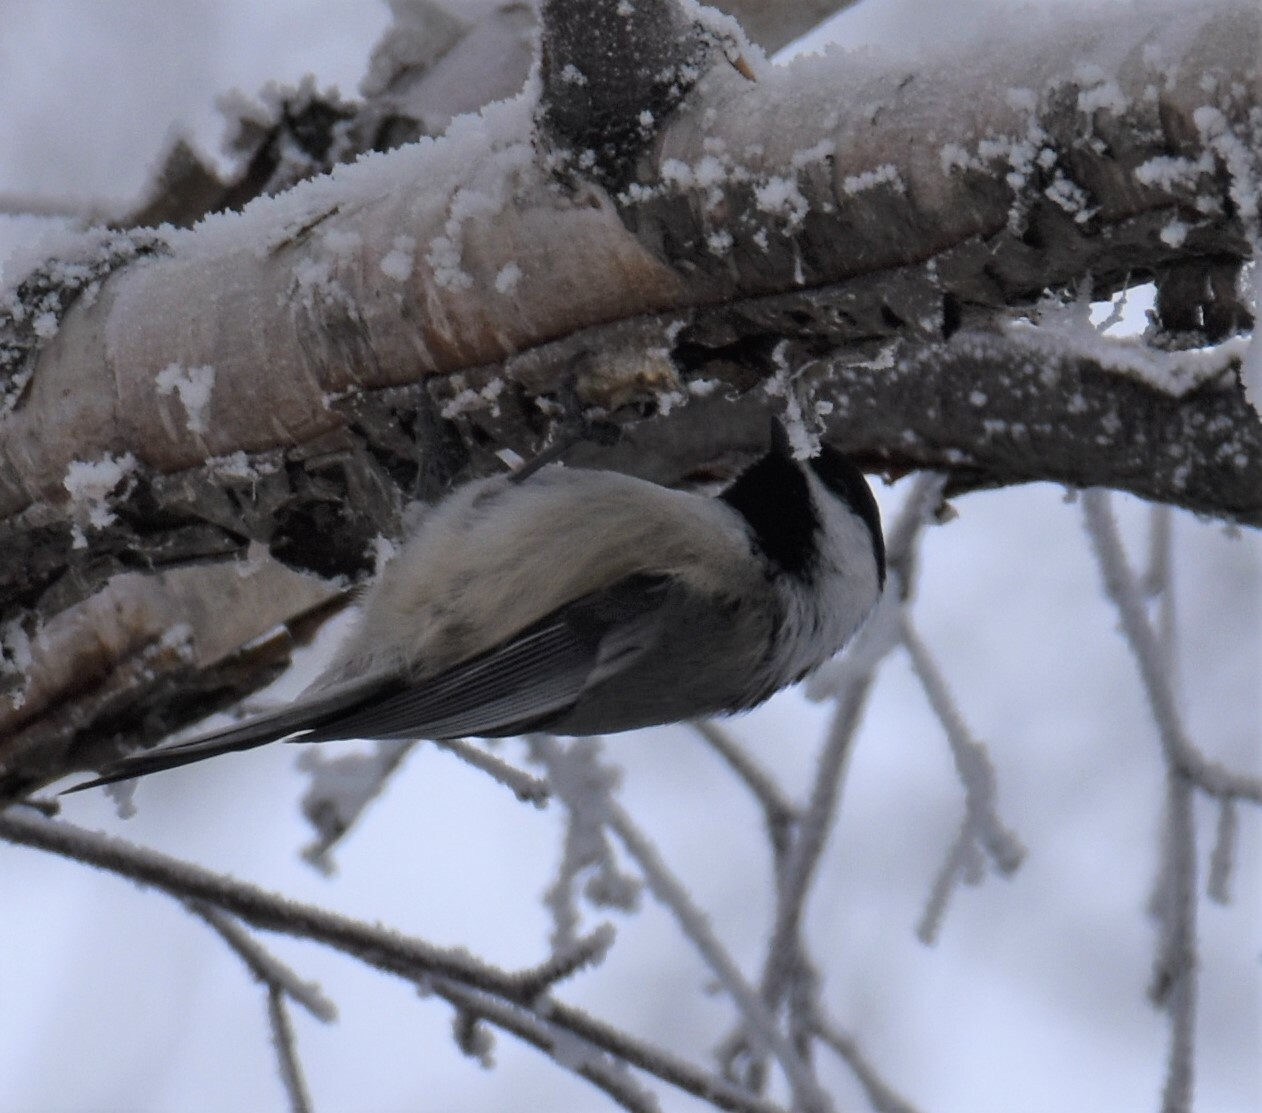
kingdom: Animalia
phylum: Chordata
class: Aves
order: Passeriformes
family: Paridae
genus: Poecile
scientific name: Poecile atricapillus
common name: Black-capped chickadee
